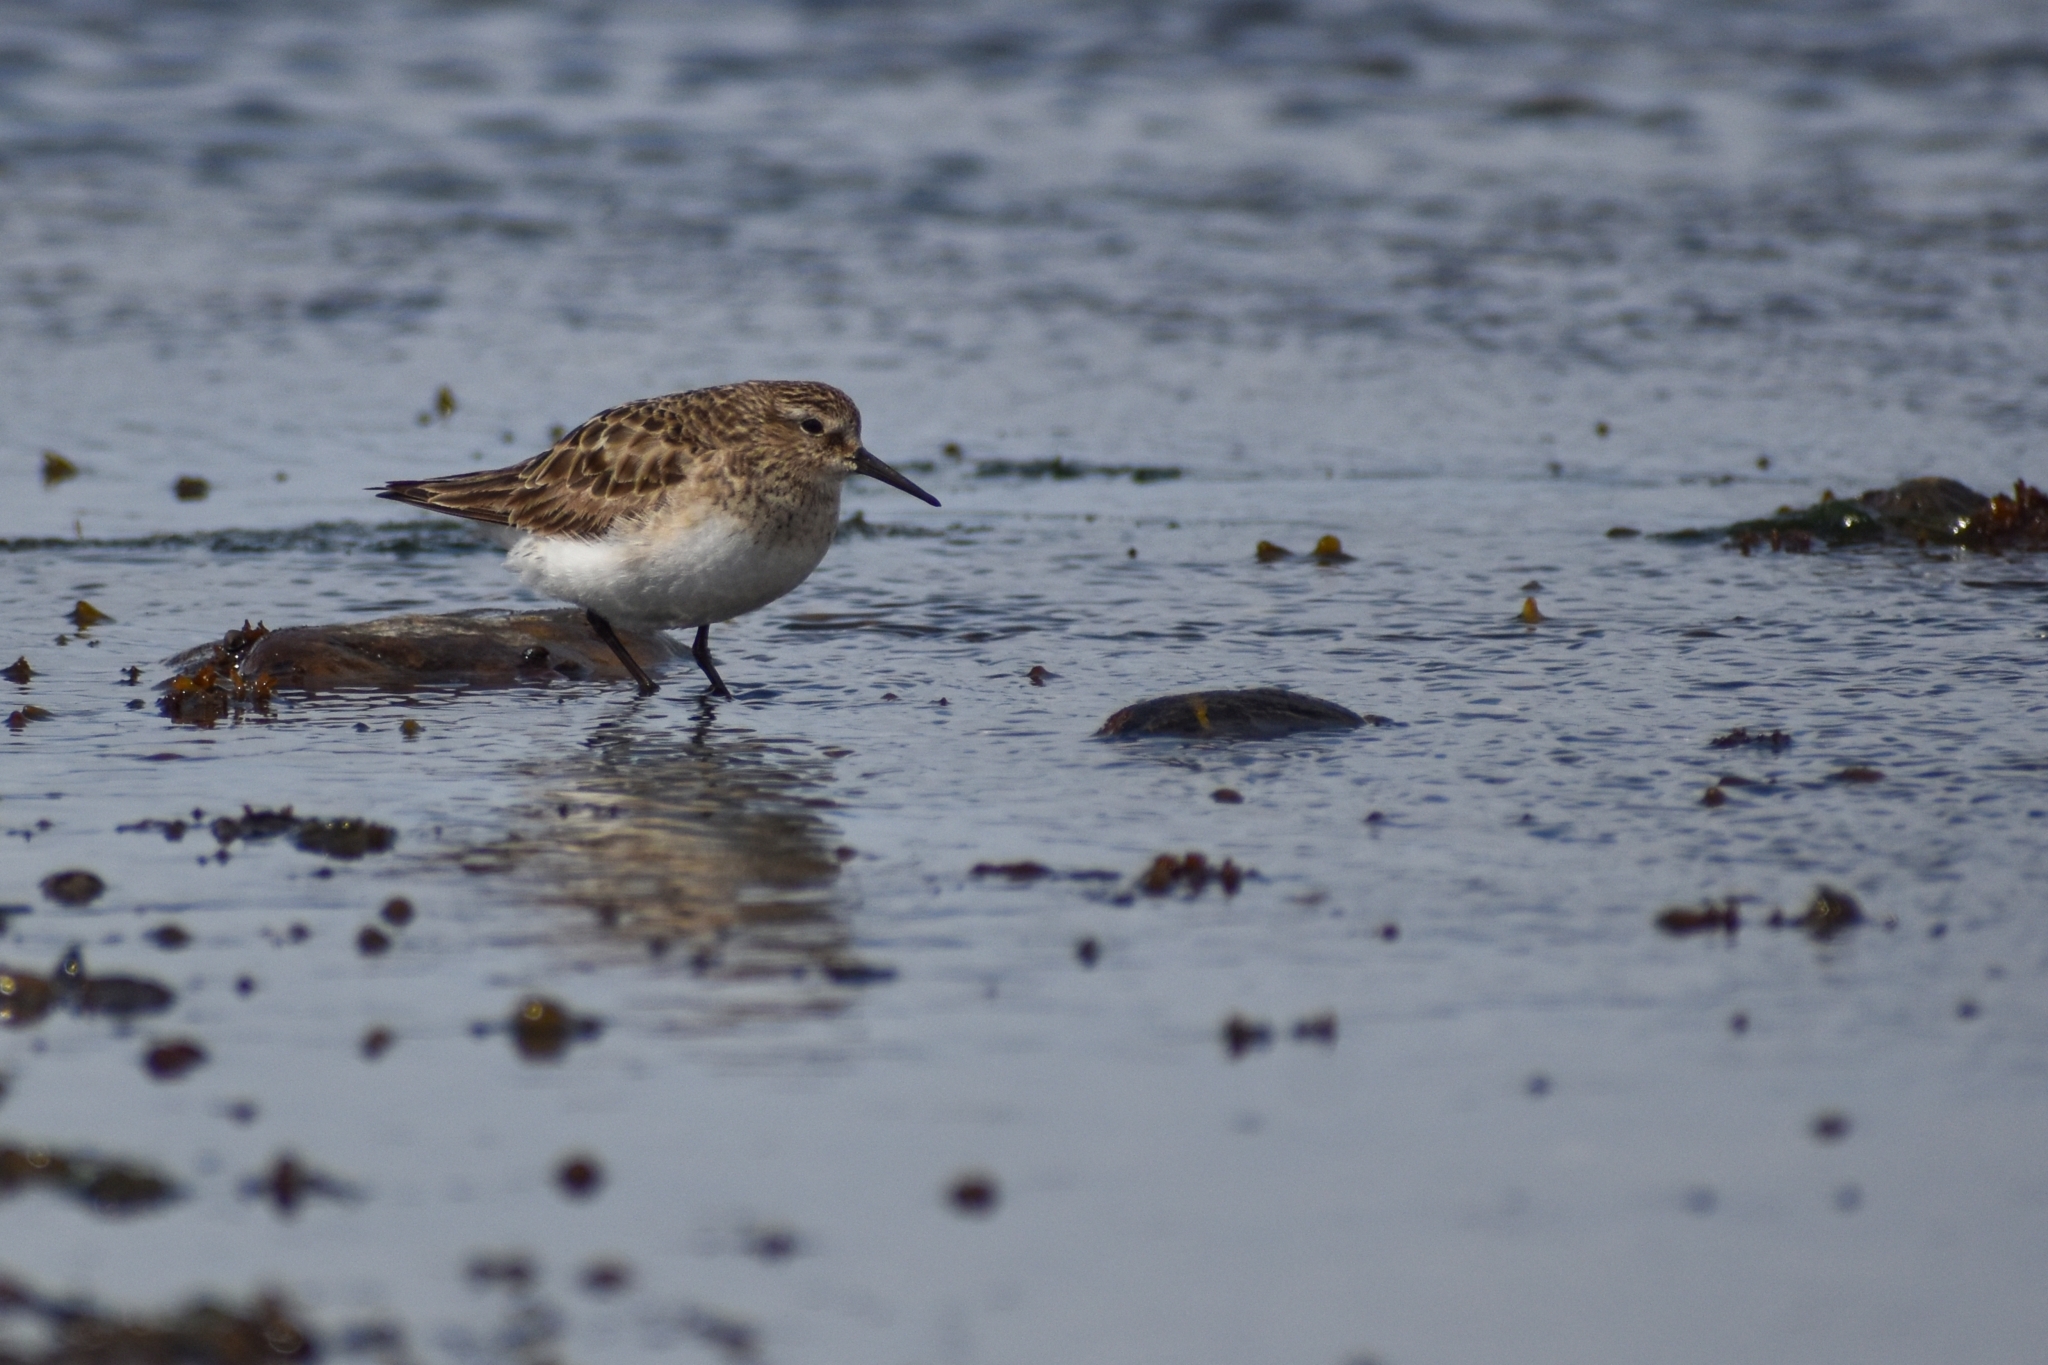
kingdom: Animalia
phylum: Chordata
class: Aves
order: Charadriiformes
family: Scolopacidae
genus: Calidris
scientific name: Calidris bairdii
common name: Baird's sandpiper
